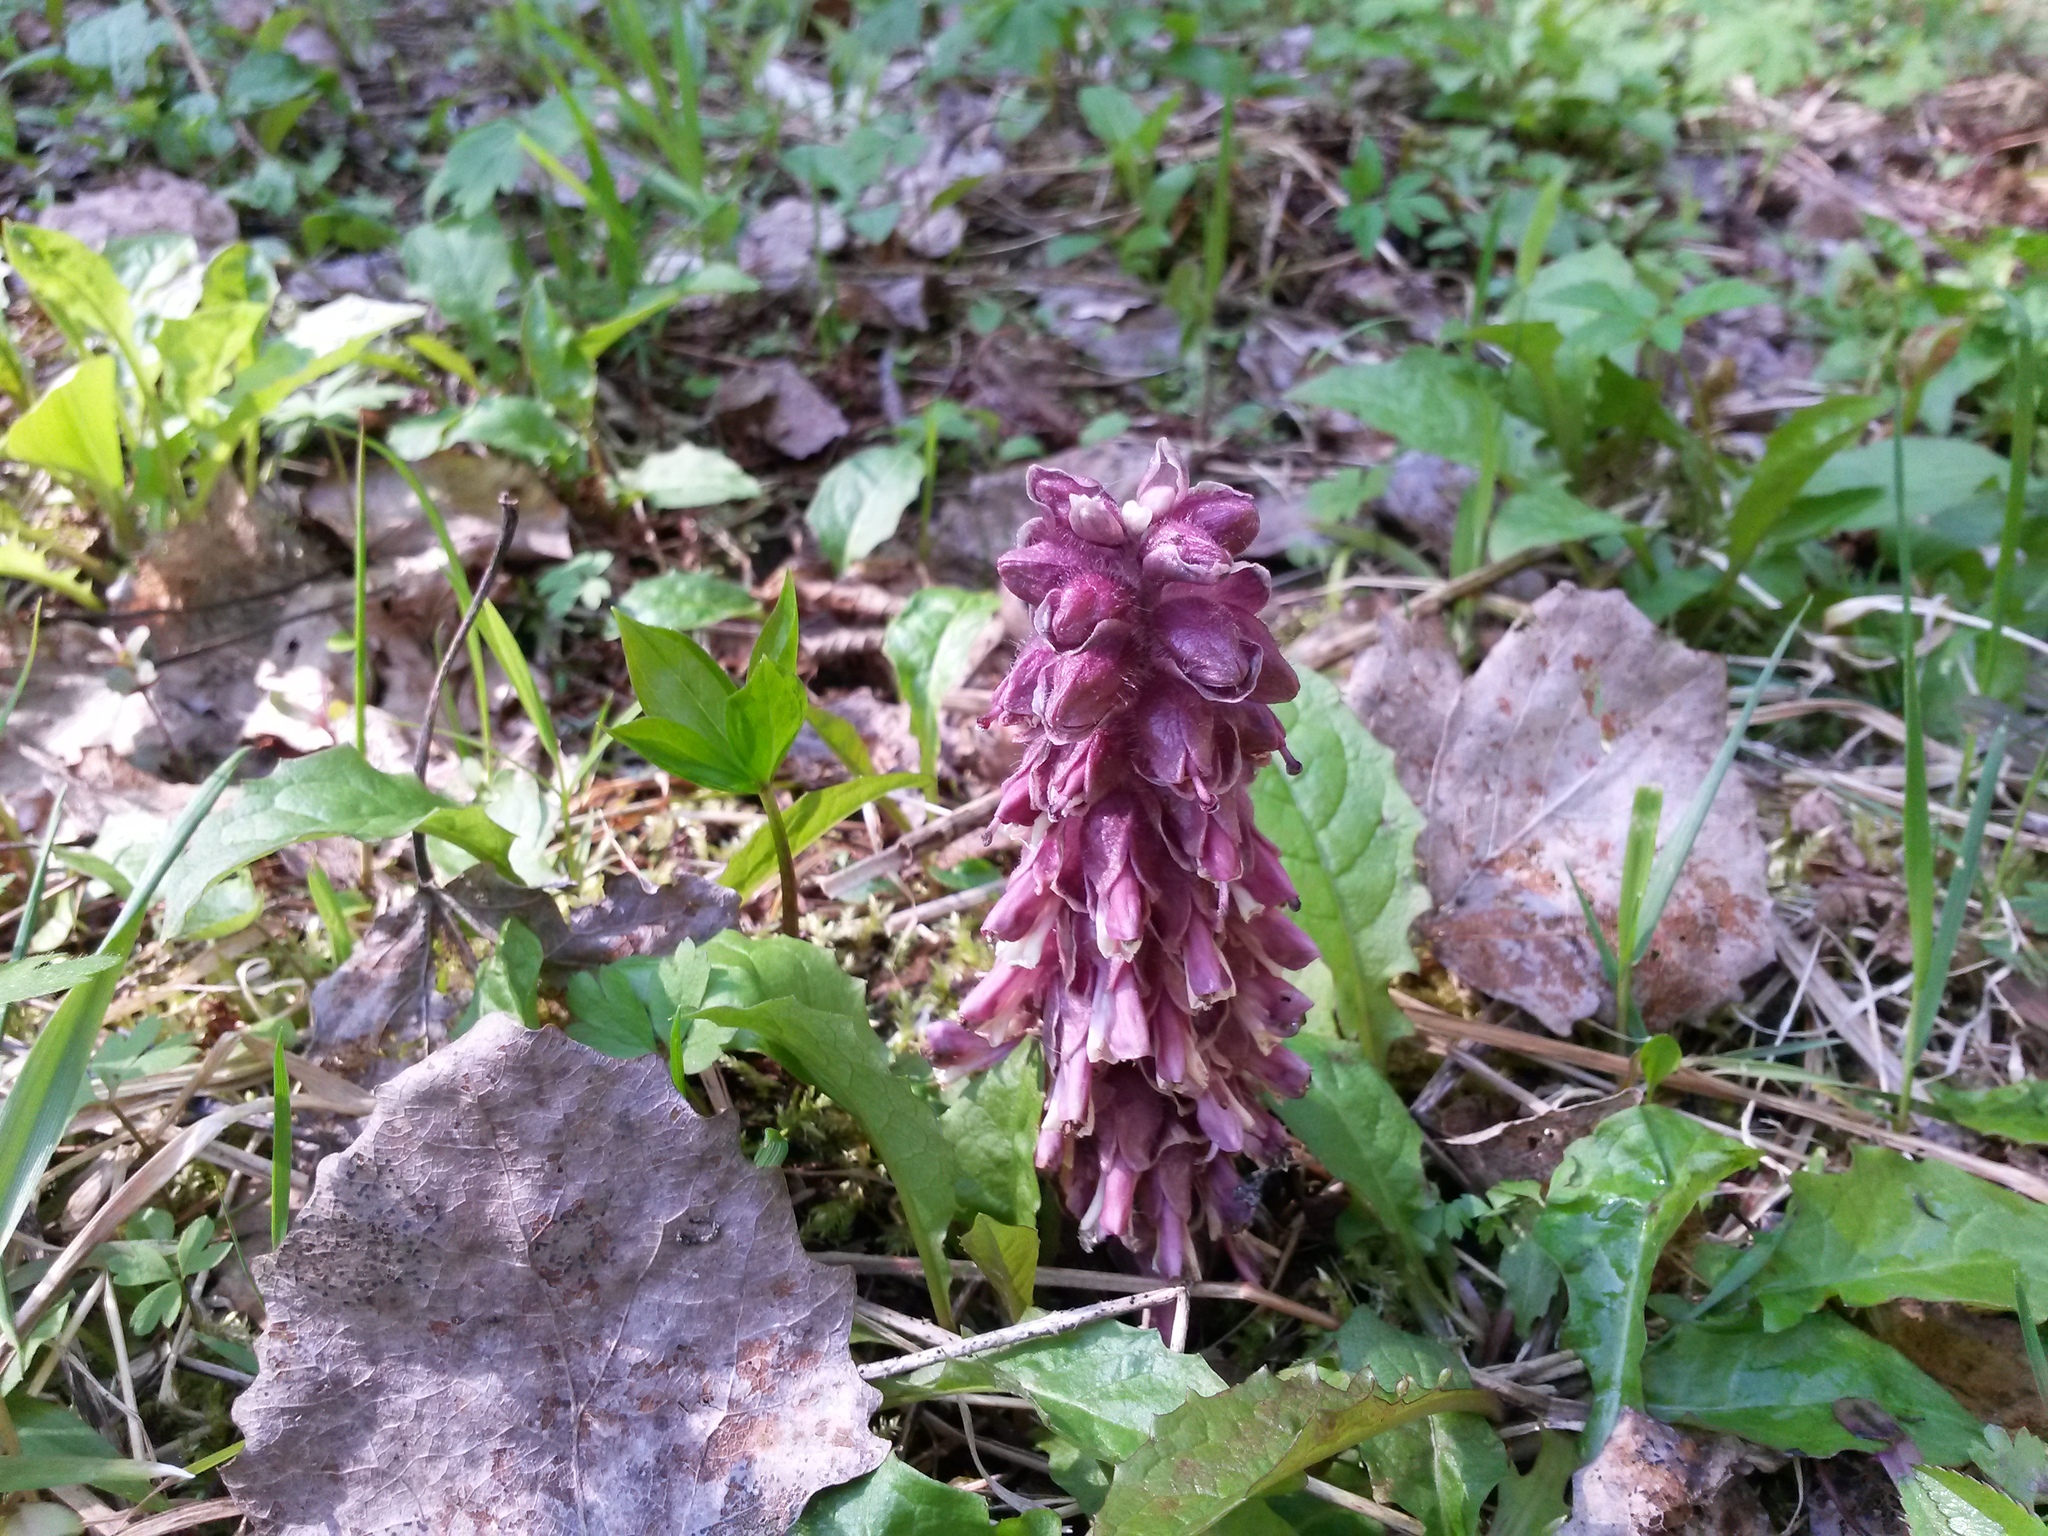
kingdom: Plantae
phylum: Tracheophyta
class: Magnoliopsida
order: Lamiales
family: Orobanchaceae
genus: Lathraea
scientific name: Lathraea squamaria
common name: Toothwort
